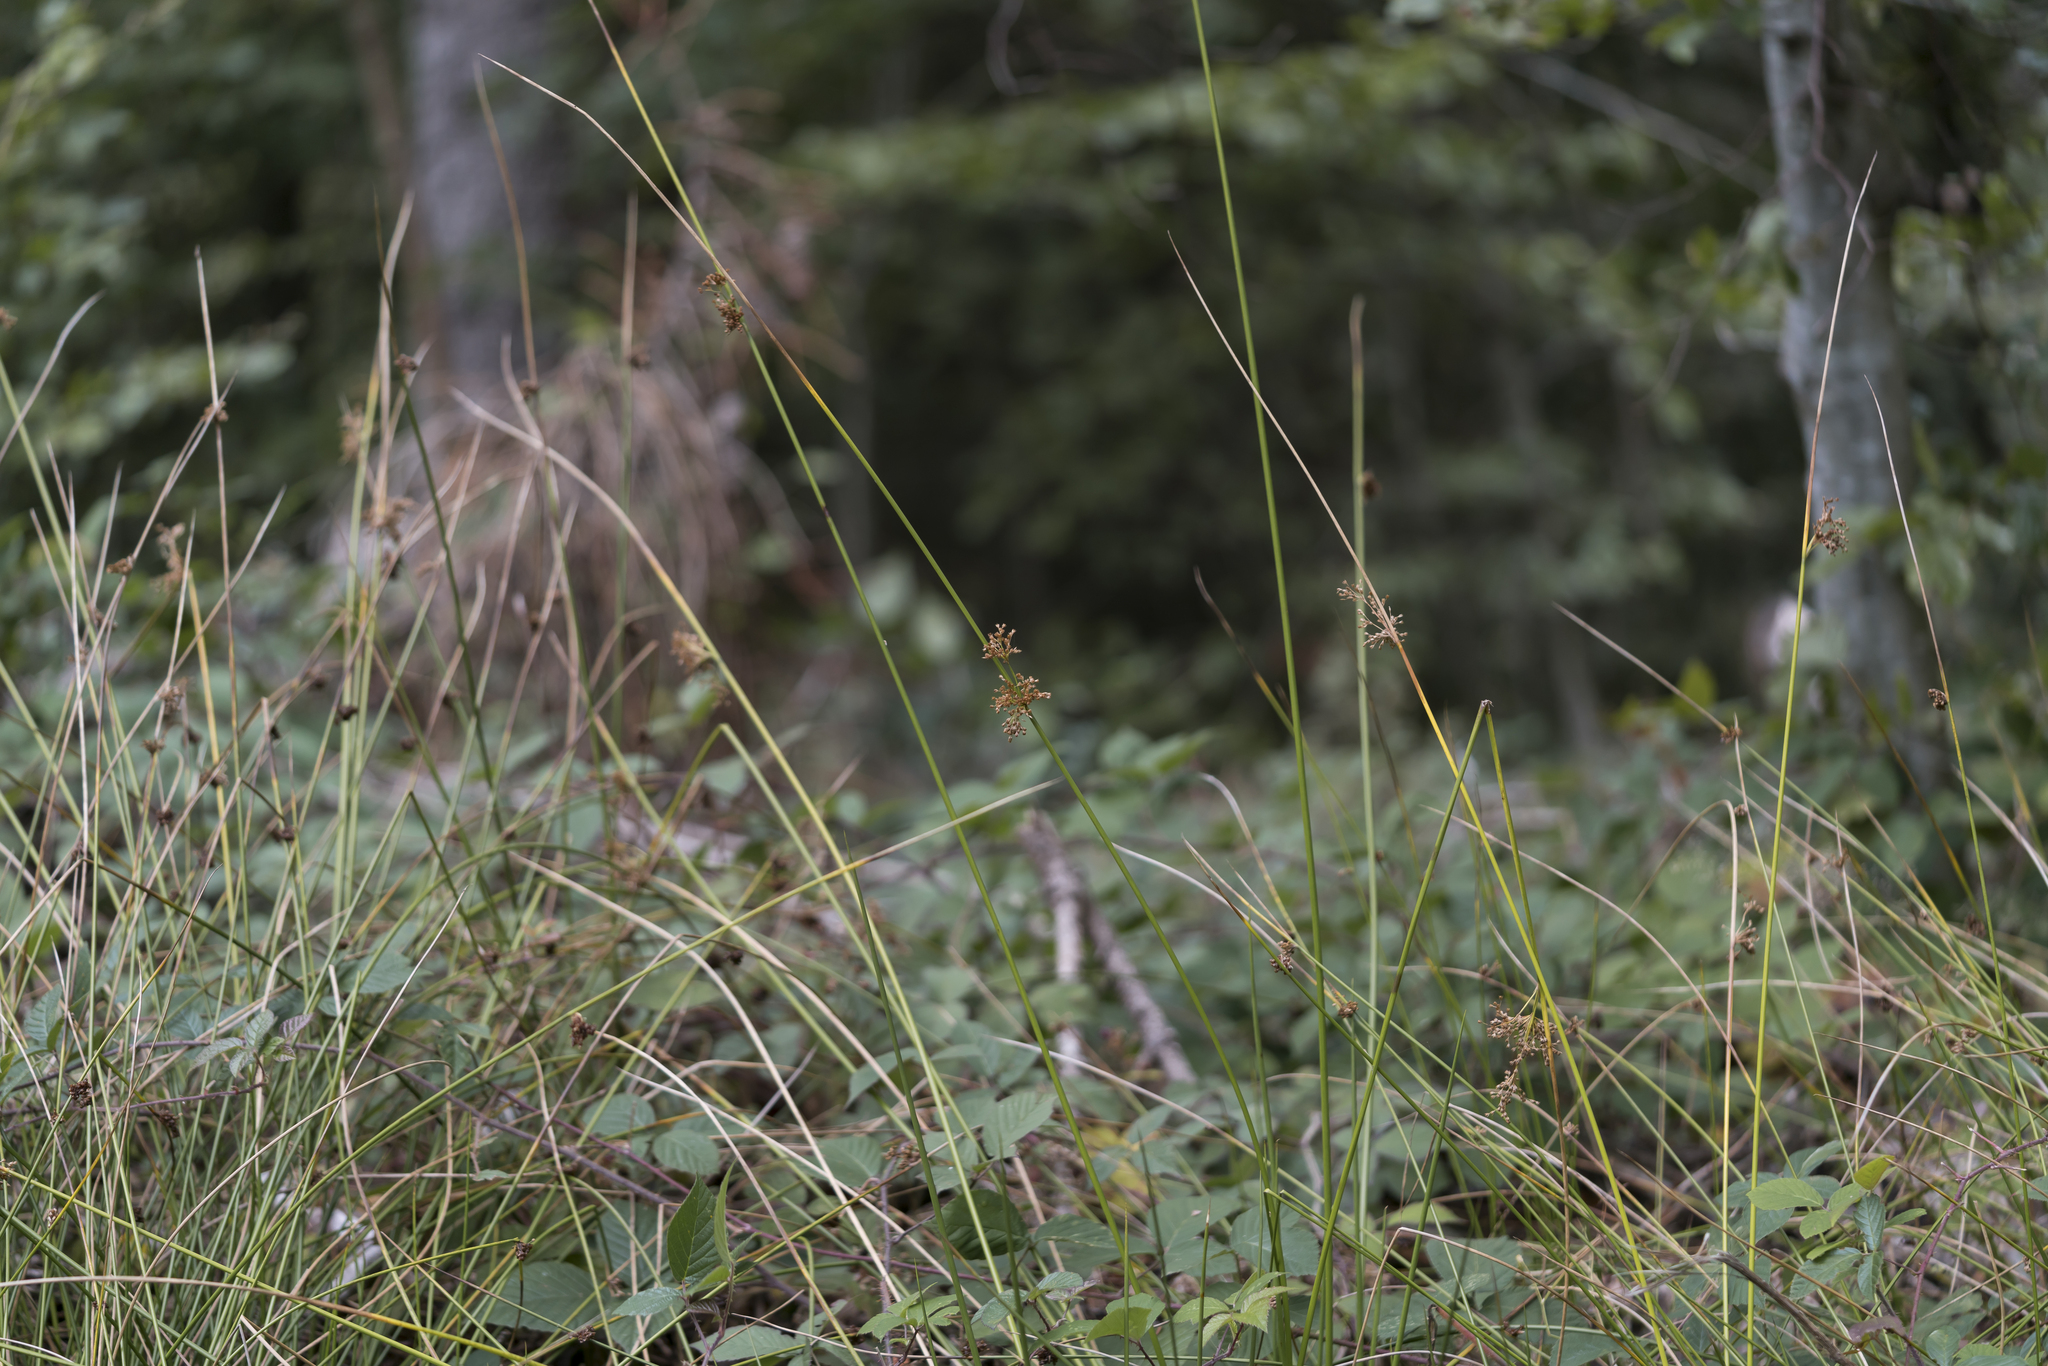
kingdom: Plantae
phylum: Tracheophyta
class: Liliopsida
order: Poales
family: Juncaceae
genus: Juncus
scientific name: Juncus effusus
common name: Soft rush
